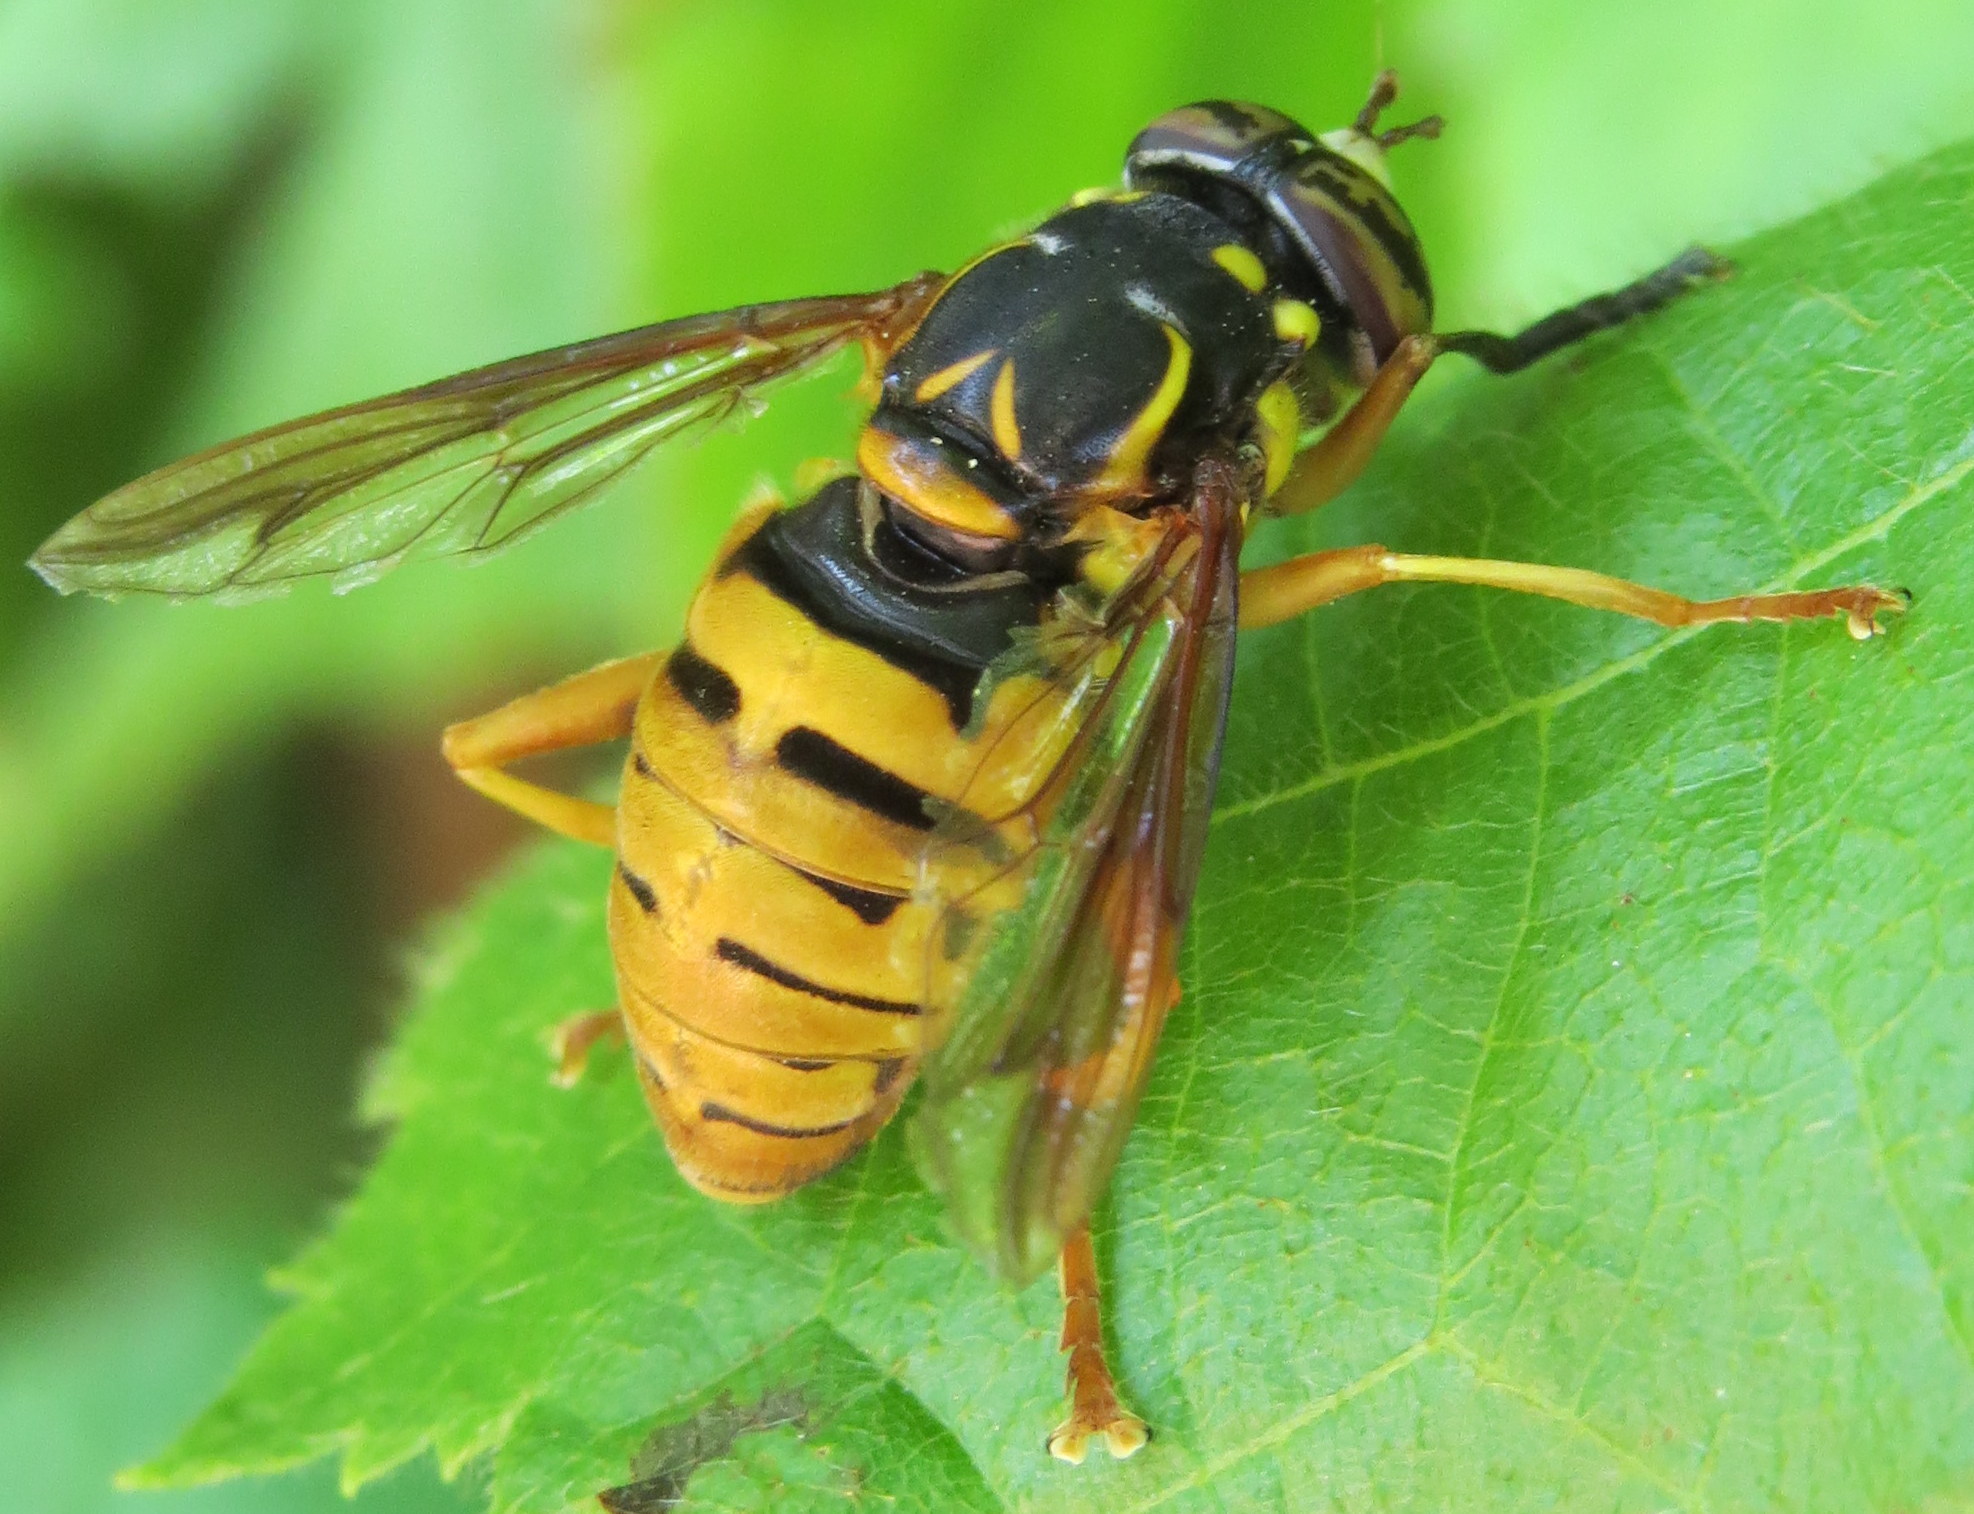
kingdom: Animalia
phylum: Arthropoda
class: Insecta
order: Diptera
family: Syrphidae
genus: Spilomyia
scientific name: Spilomyia alcimus
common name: Broad-banded hornet fly
